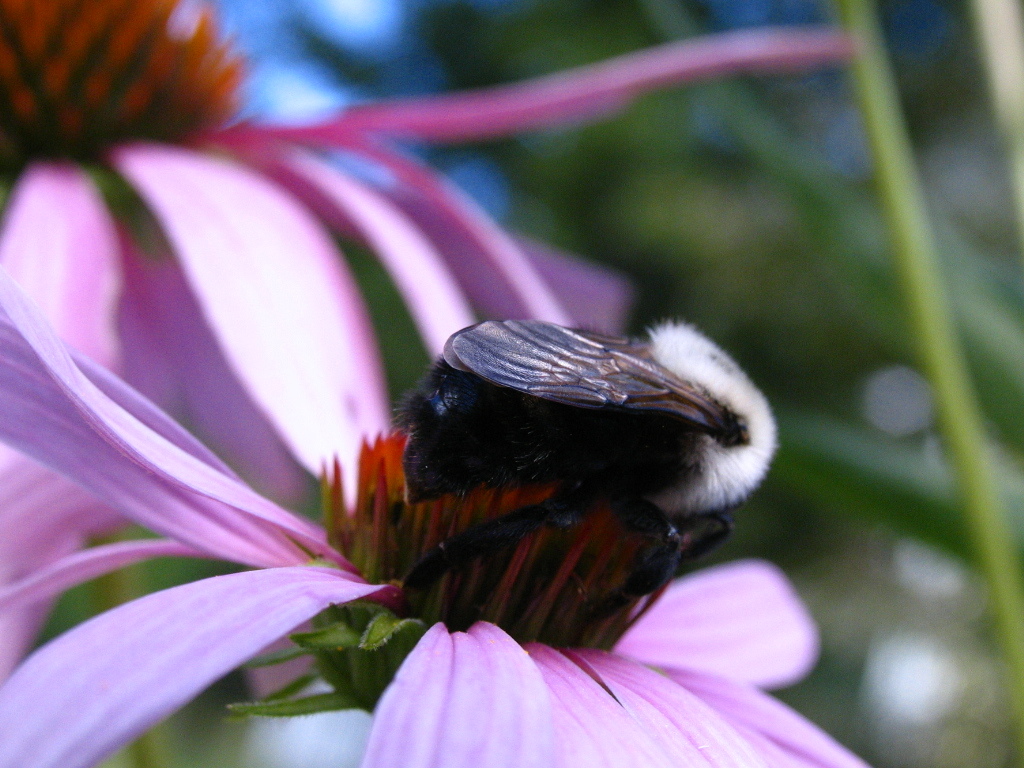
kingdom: Animalia
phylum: Arthropoda
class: Insecta
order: Hymenoptera
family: Apidae
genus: Bombus
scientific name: Bombus citrinus
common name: Lemon cuckoo bumble bee
